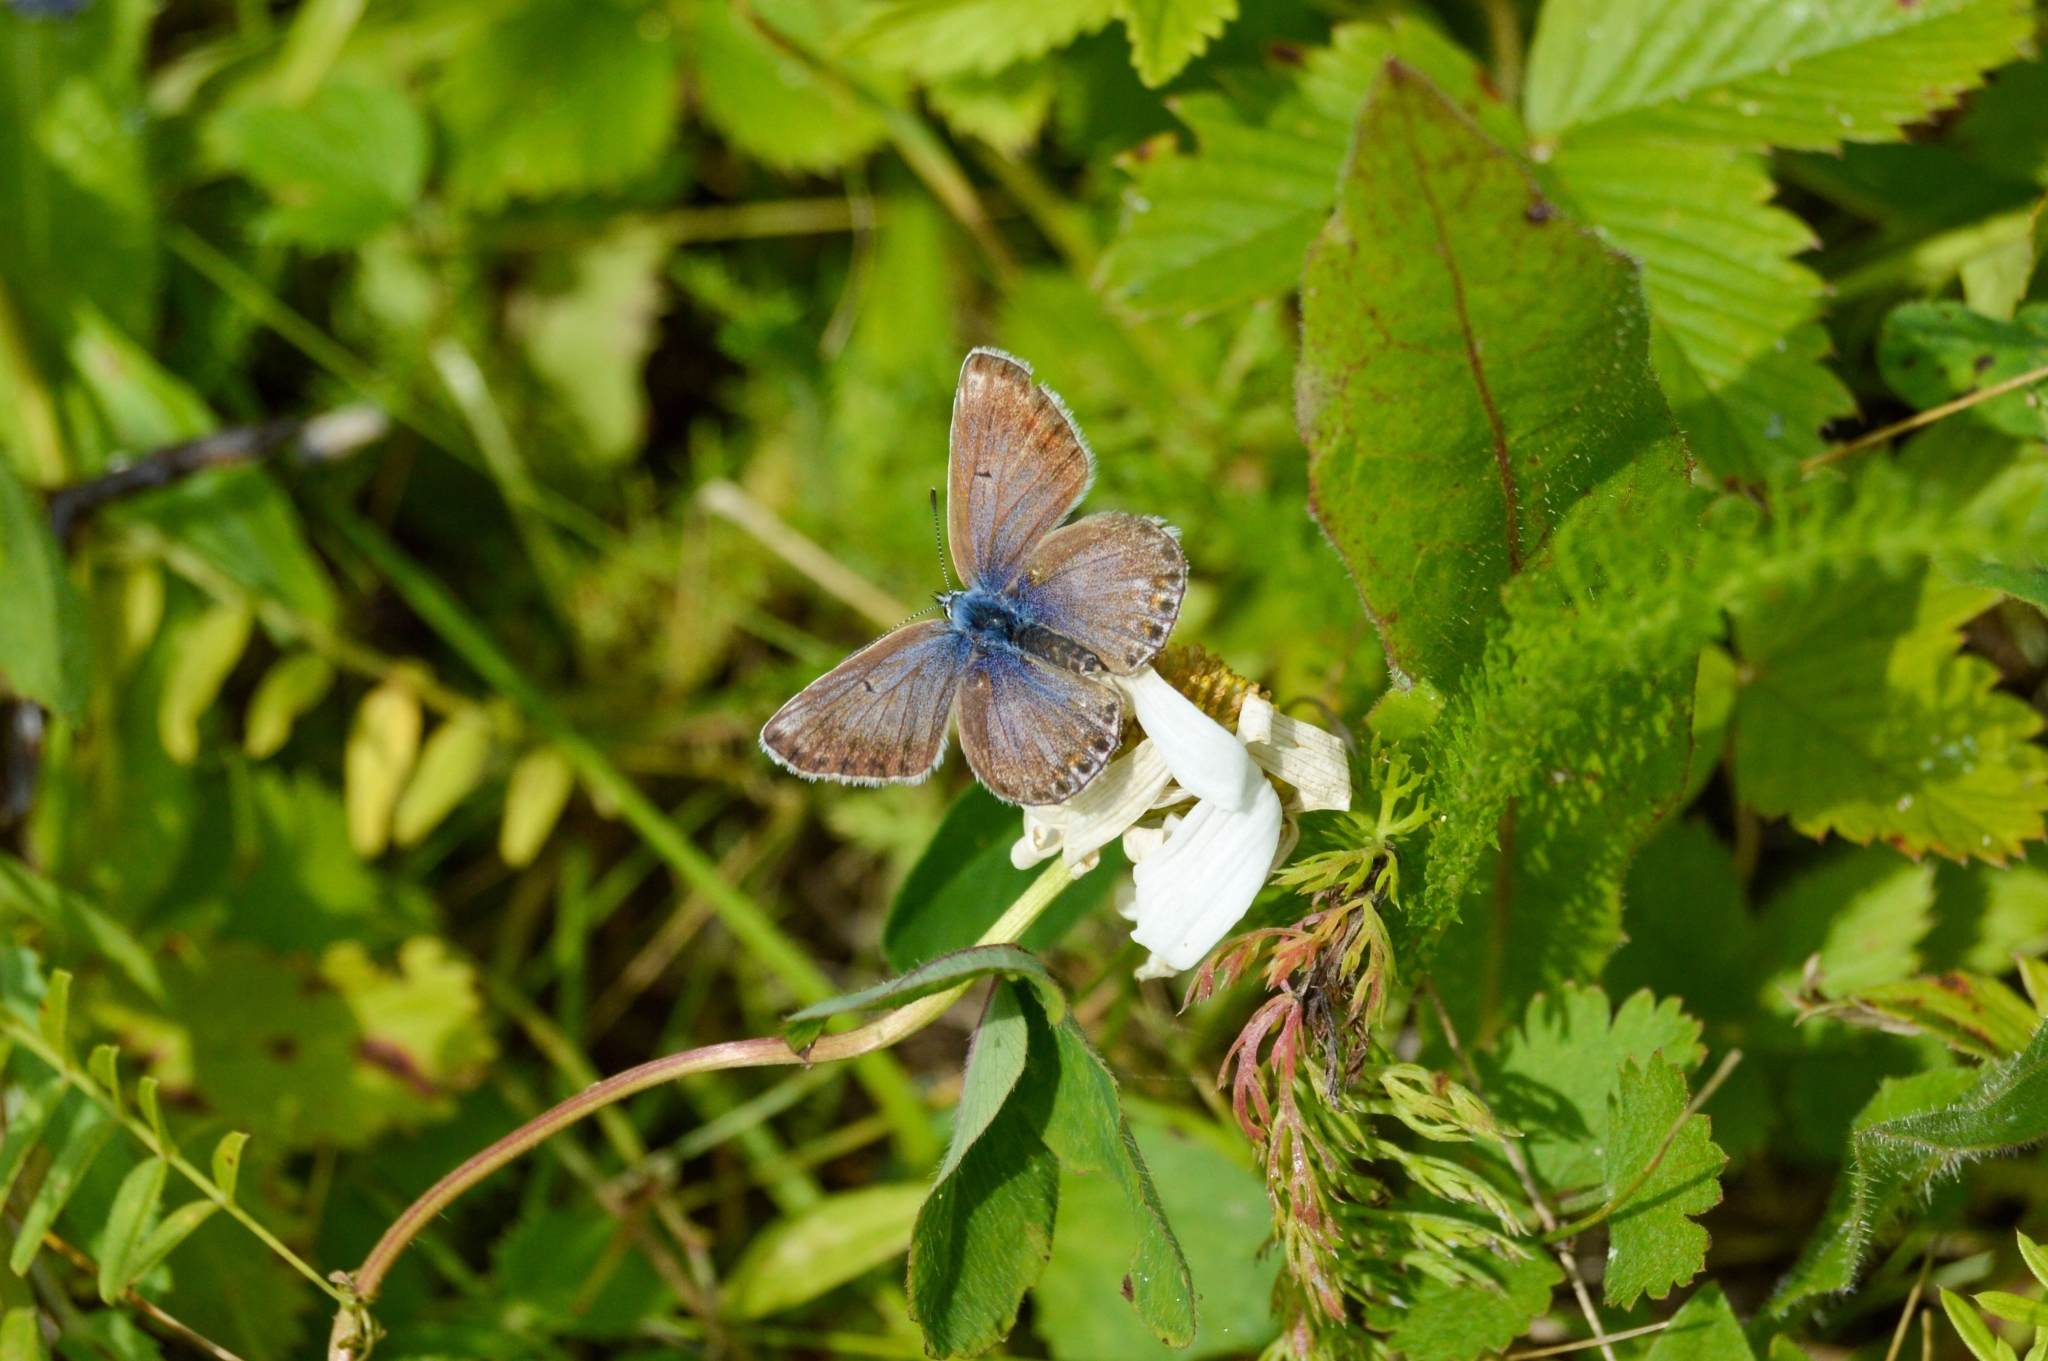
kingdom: Animalia
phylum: Arthropoda
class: Insecta
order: Lepidoptera
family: Lycaenidae
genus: Lycaeides
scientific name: Lycaeides idas
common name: Northern blue
